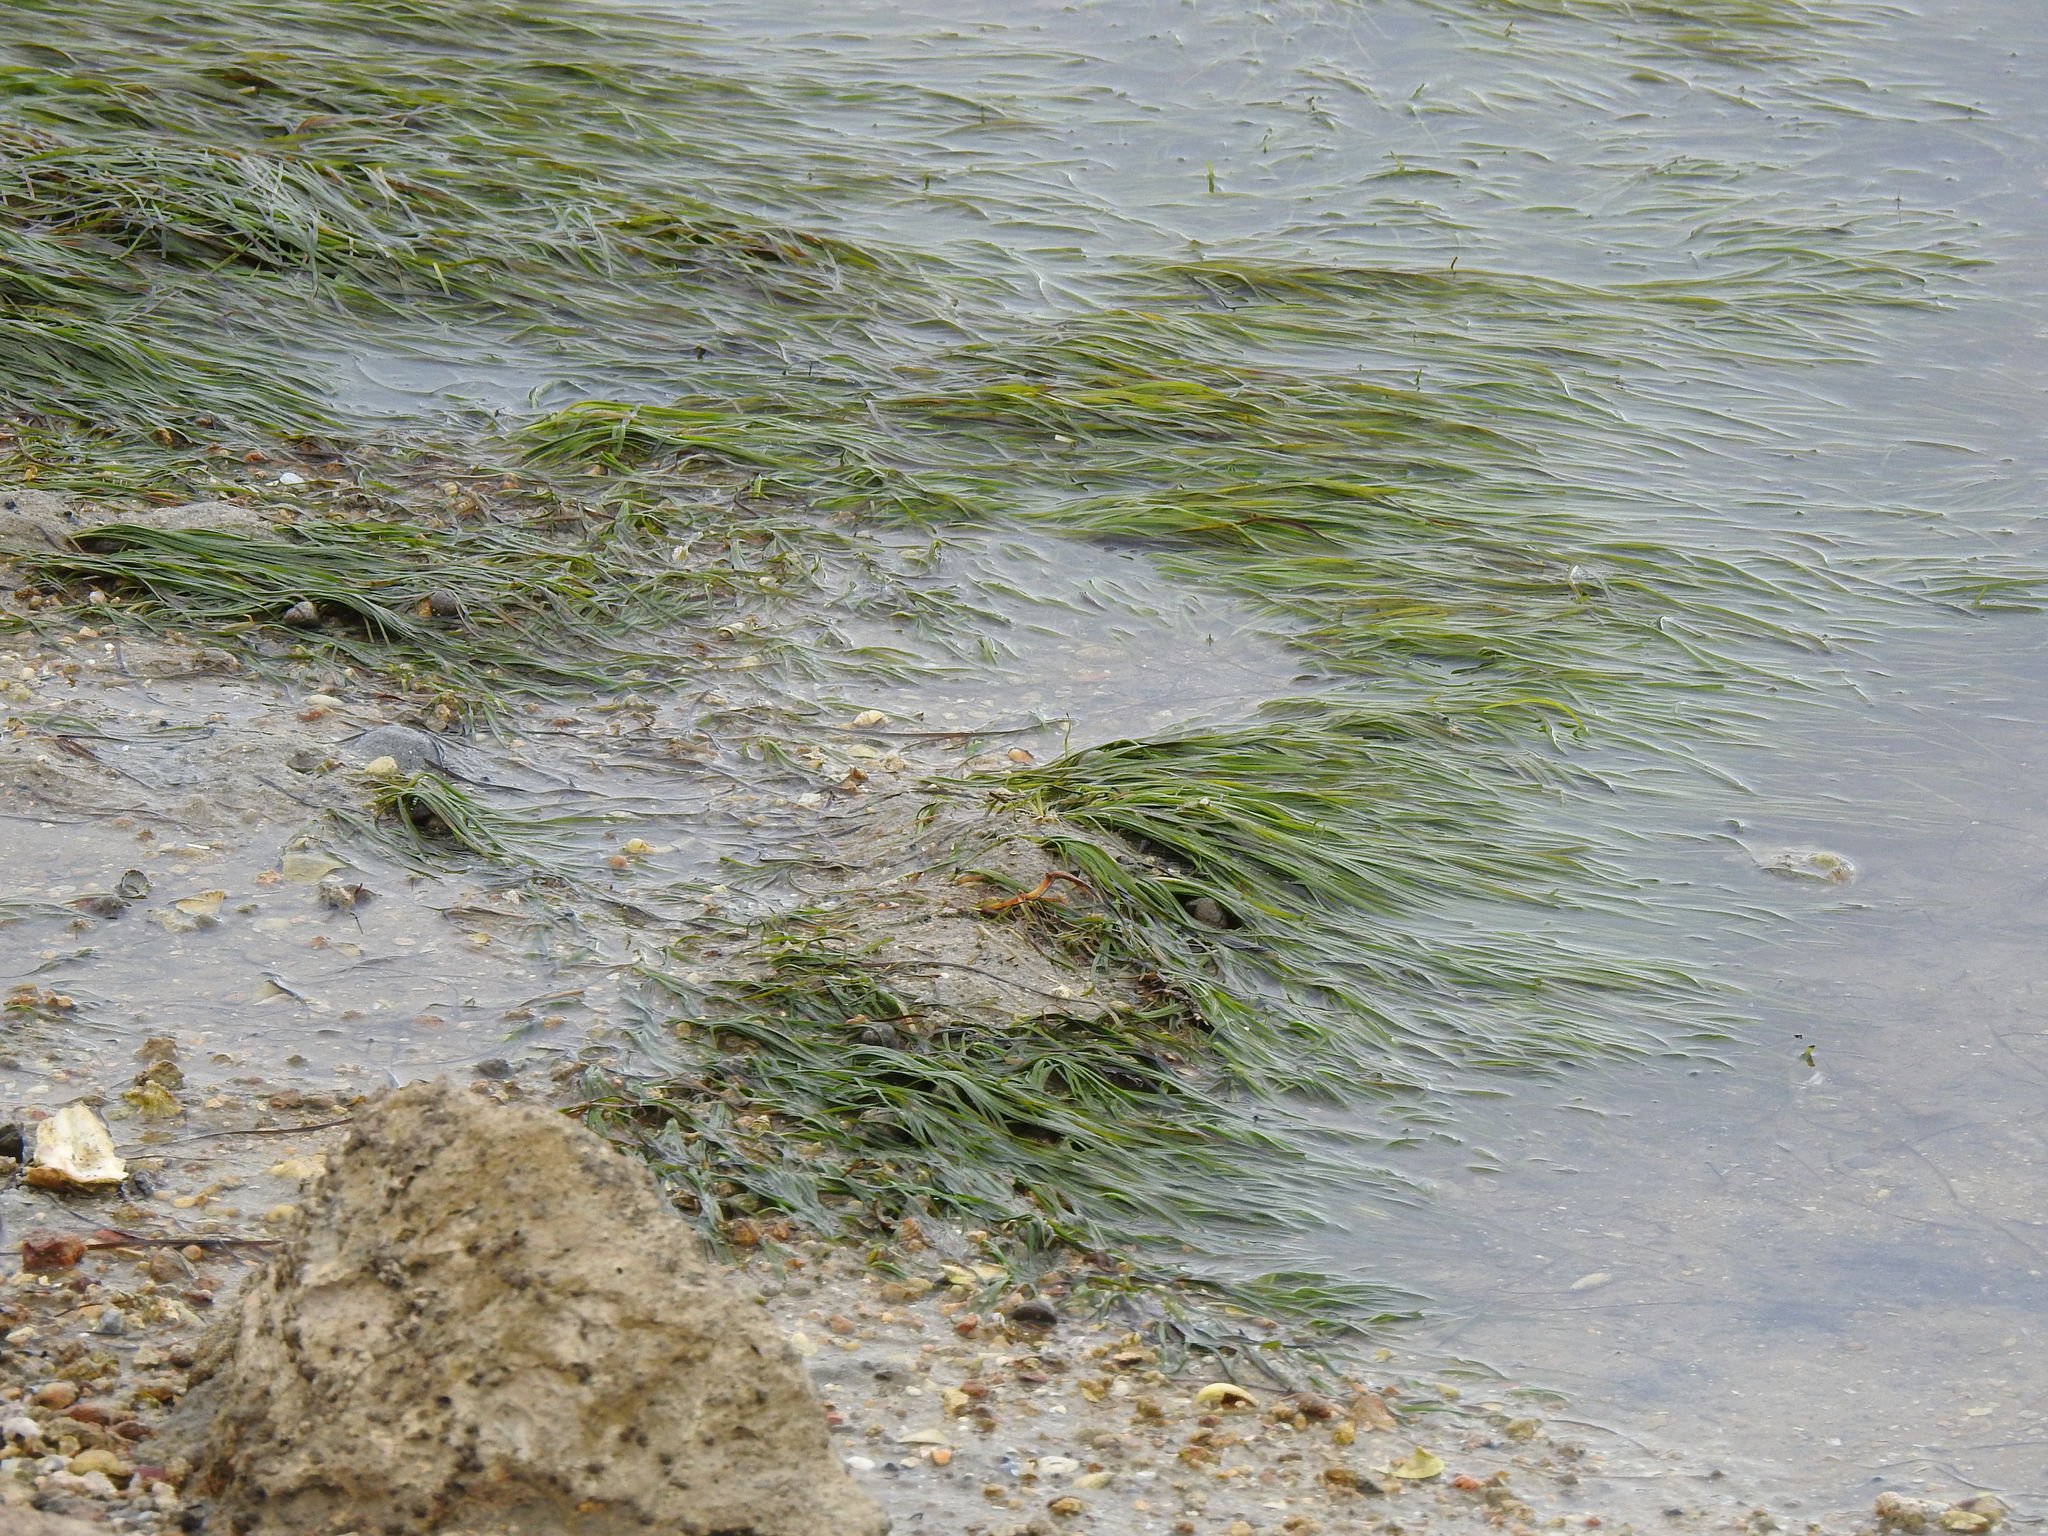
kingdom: Plantae
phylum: Tracheophyta
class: Liliopsida
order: Alismatales
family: Zosteraceae
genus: Zostera
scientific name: Zostera noltii
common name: Dwarf eelgrass
